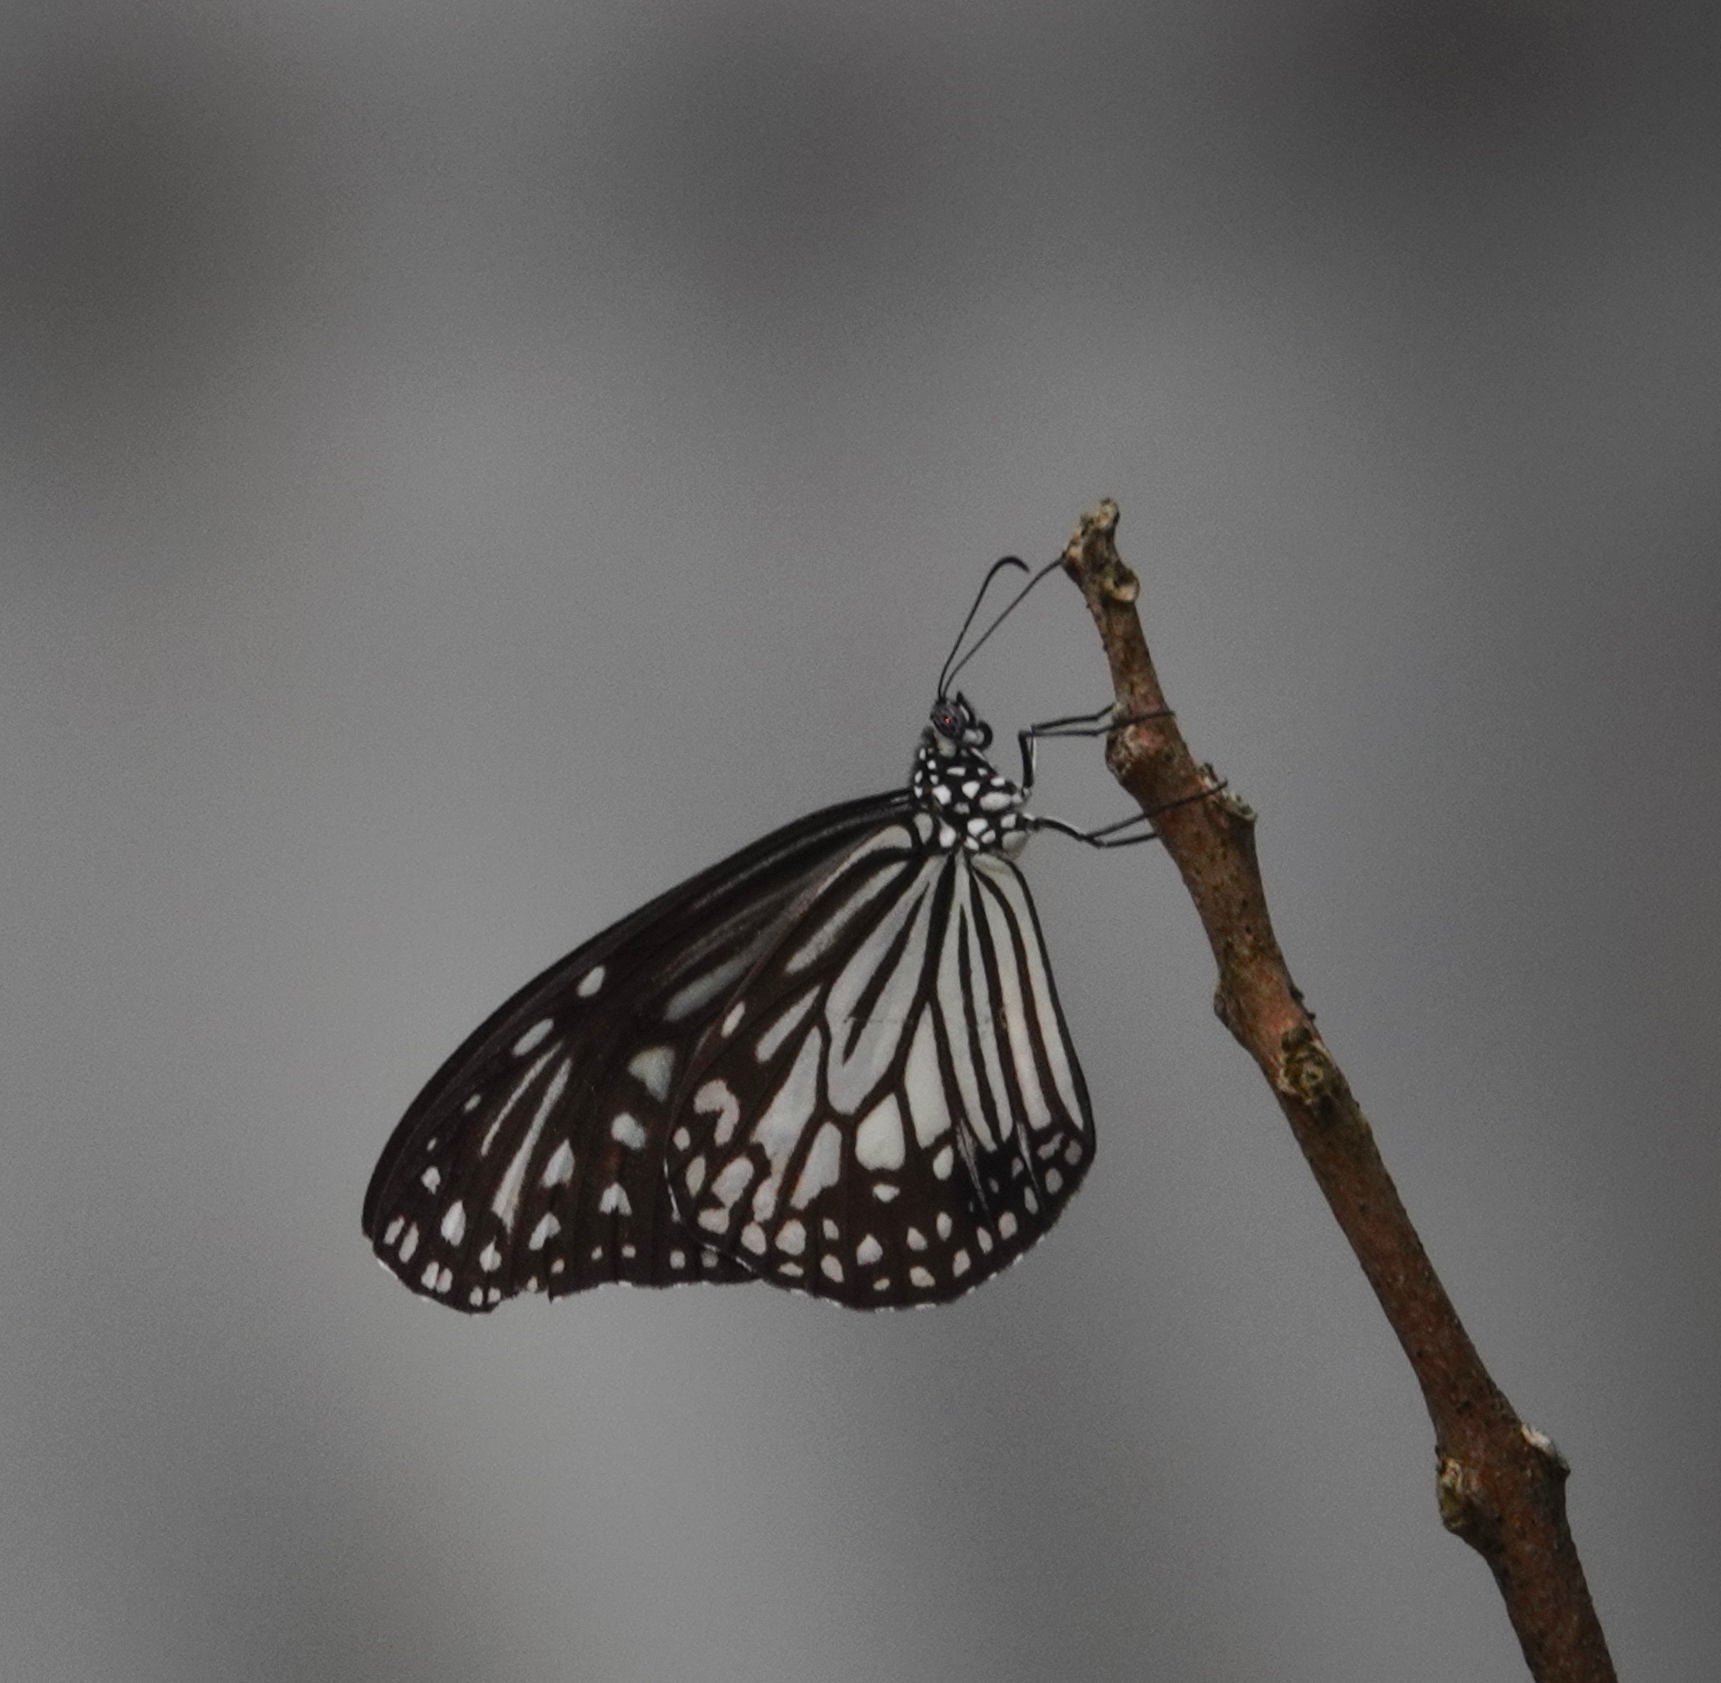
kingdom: Animalia
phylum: Arthropoda
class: Insecta
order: Lepidoptera
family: Nymphalidae
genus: Parantica
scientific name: Parantica aglea
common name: Glassy tiger
